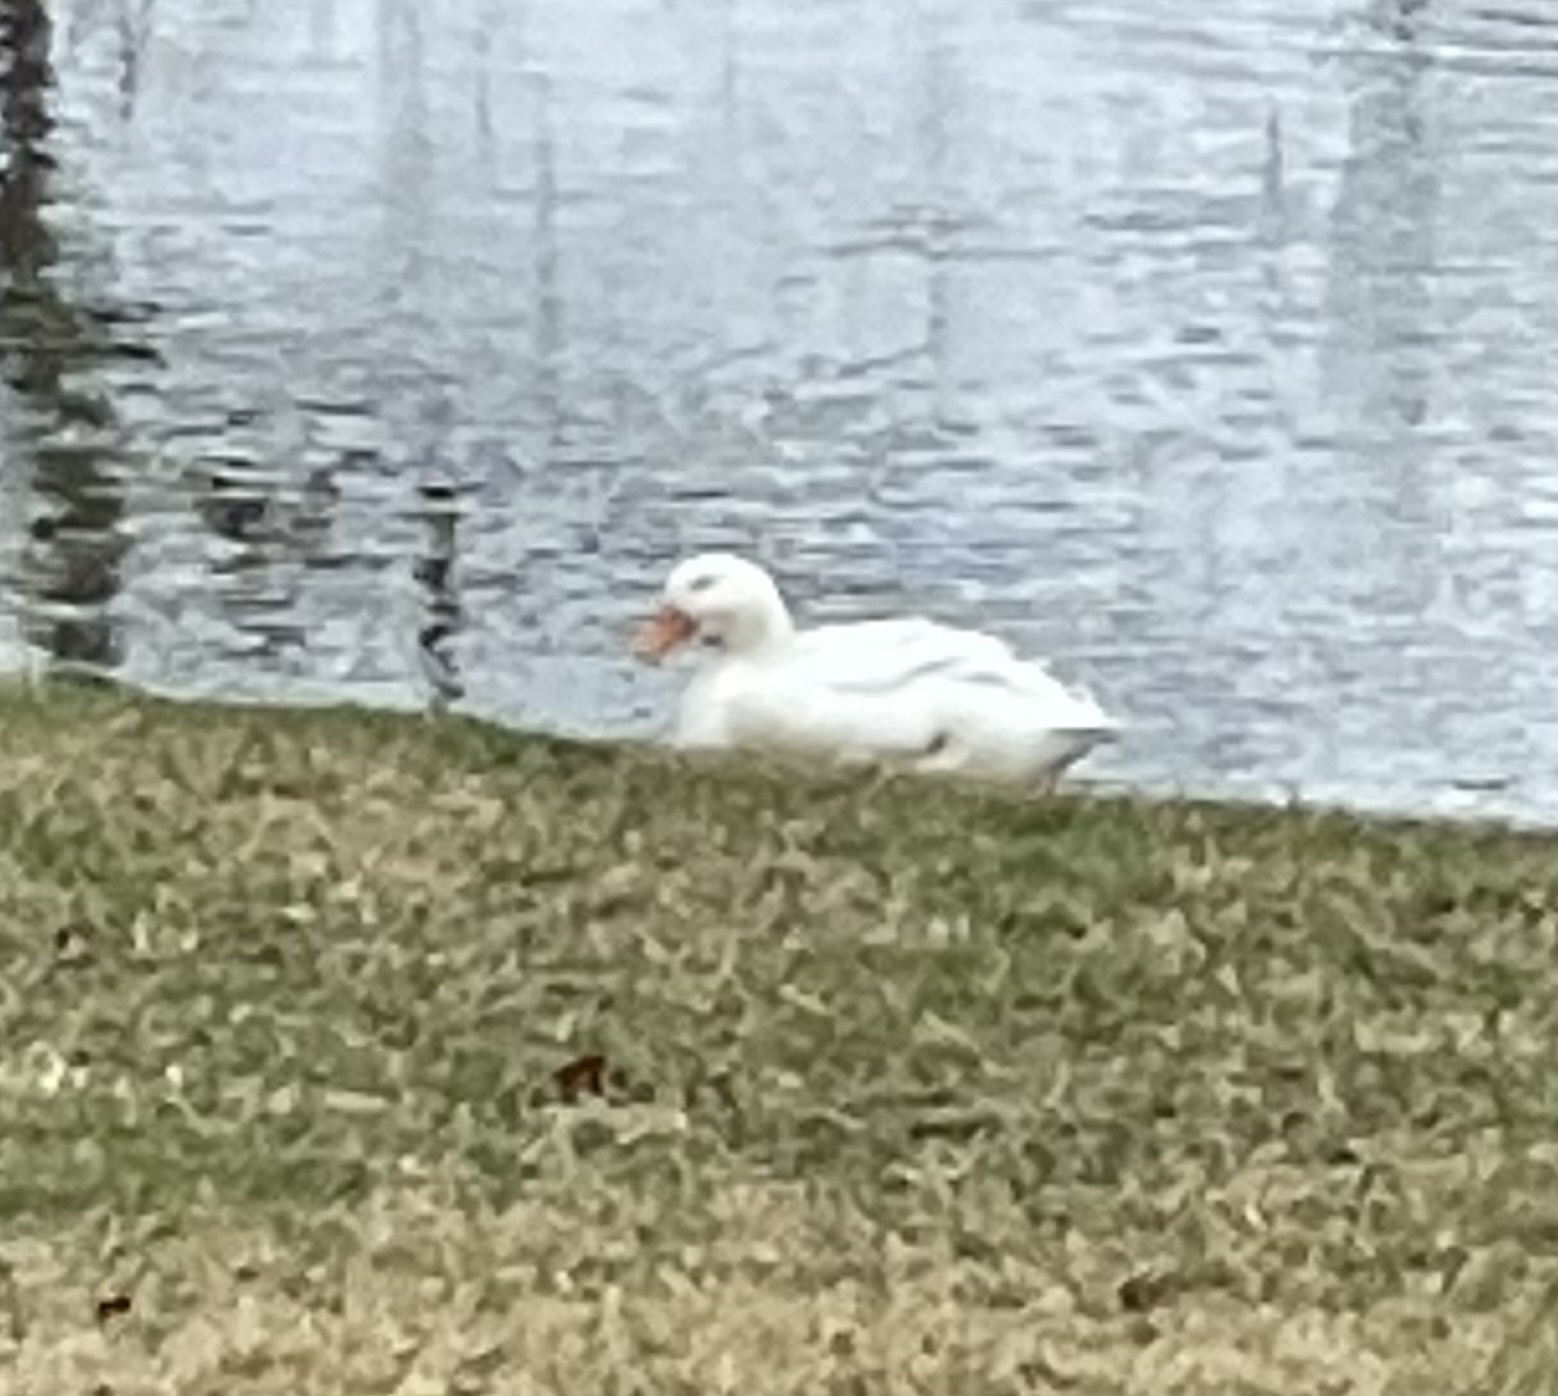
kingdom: Animalia
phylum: Chordata
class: Aves
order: Anseriformes
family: Anatidae
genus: Anas
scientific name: Anas platyrhynchos
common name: Mallard
